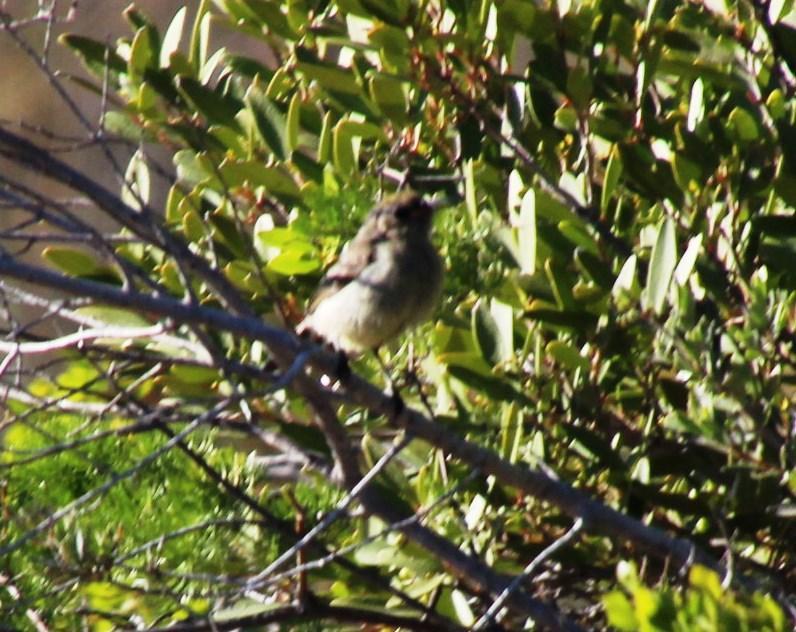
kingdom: Animalia
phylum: Chordata
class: Aves
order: Passeriformes
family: Nectariniidae
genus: Cinnyris
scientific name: Cinnyris chalybeus
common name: Southern double-collared sunbird
